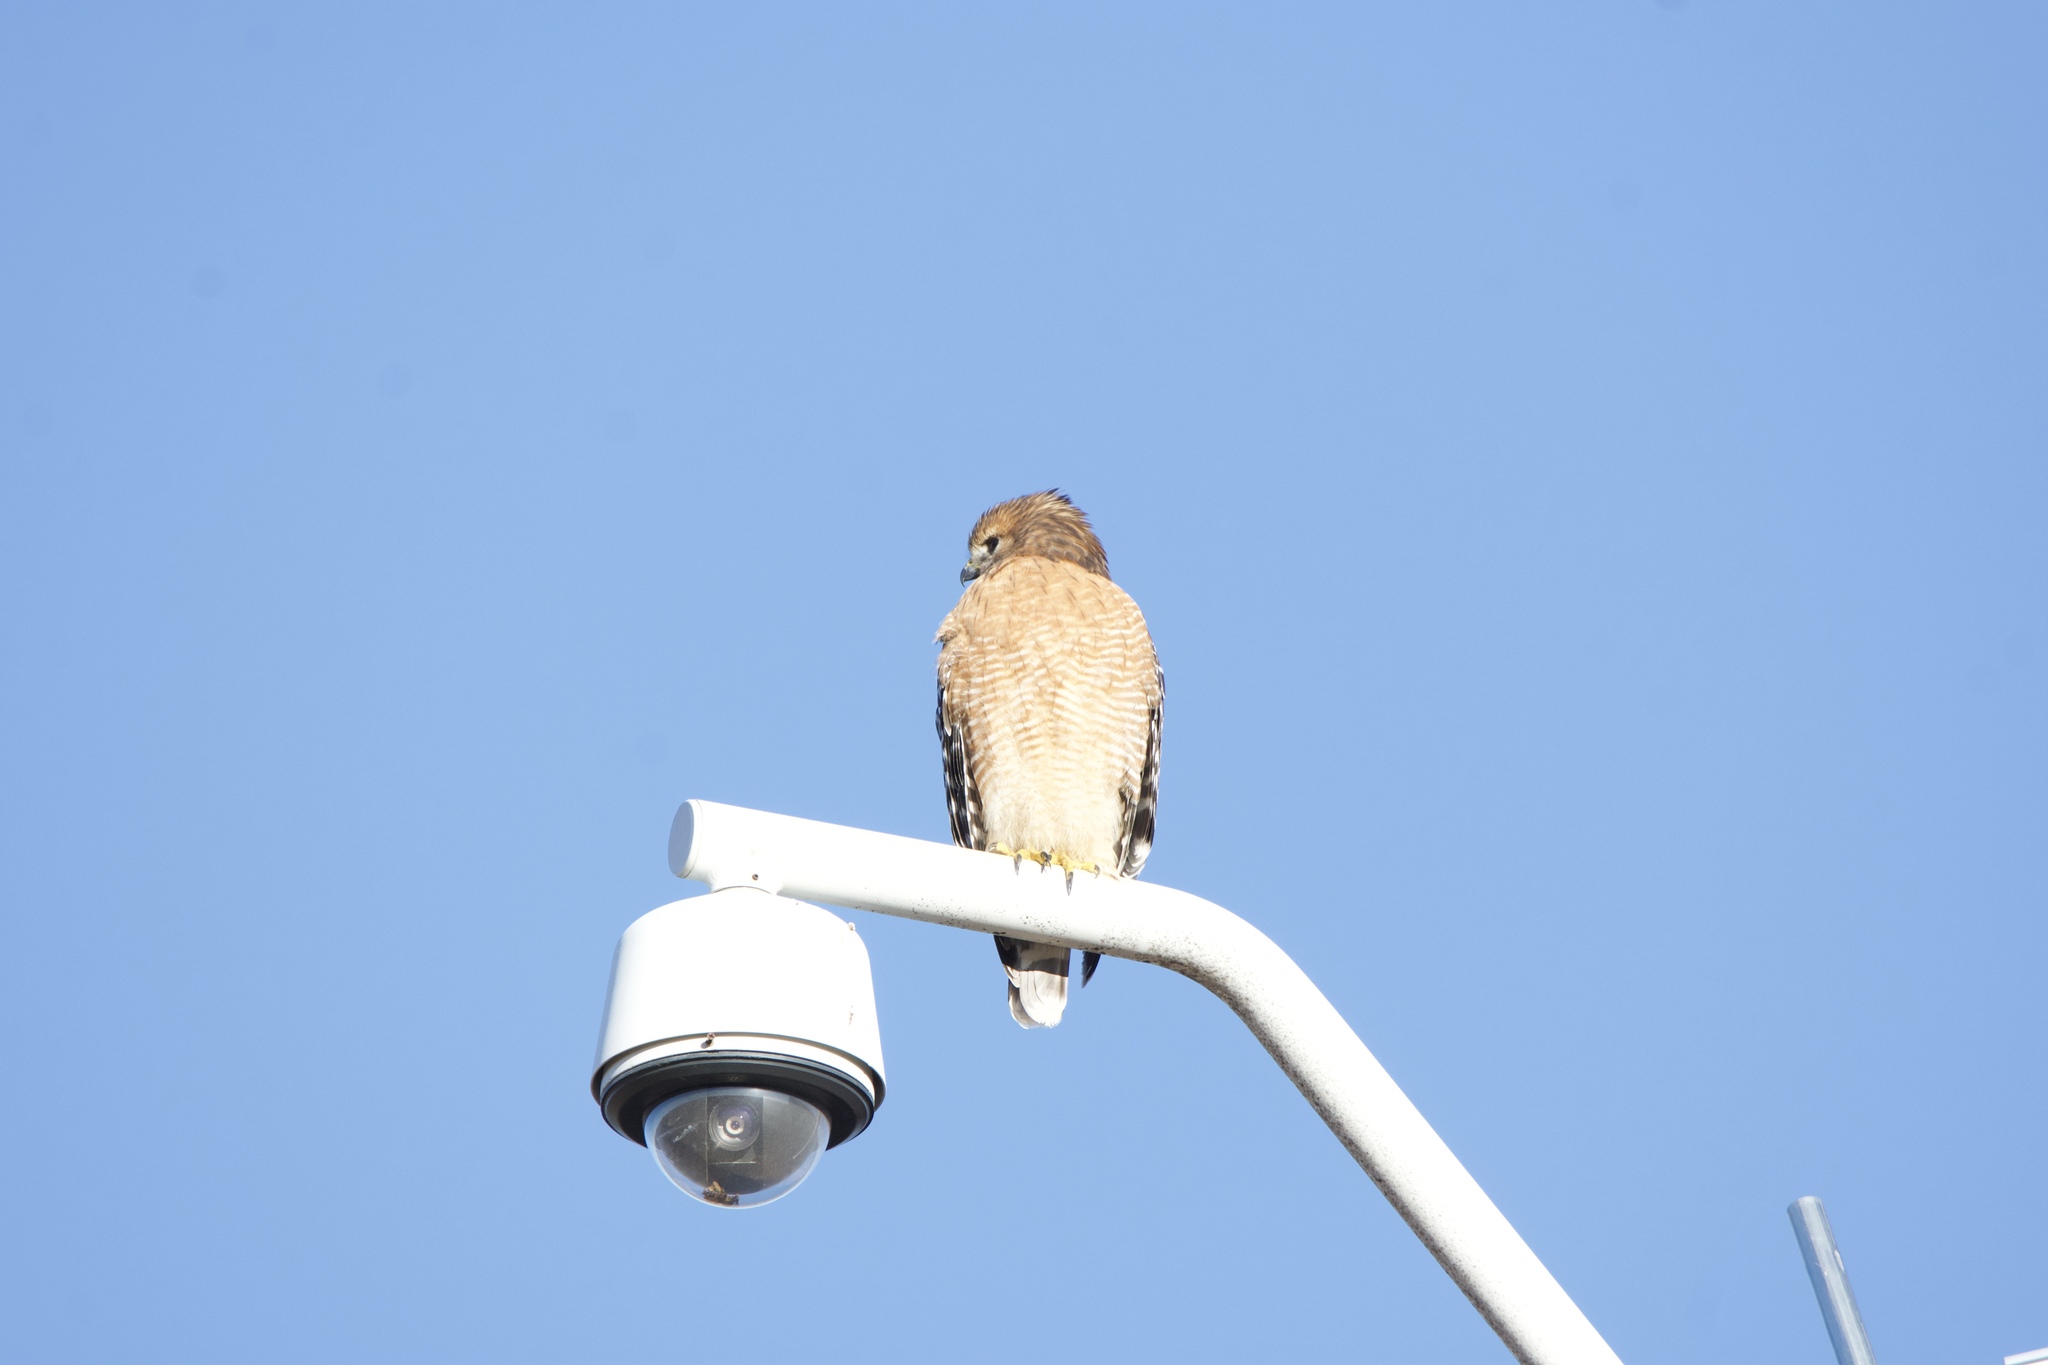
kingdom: Animalia
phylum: Chordata
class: Aves
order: Accipitriformes
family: Accipitridae
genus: Buteo
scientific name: Buteo lineatus
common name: Red-shouldered hawk
